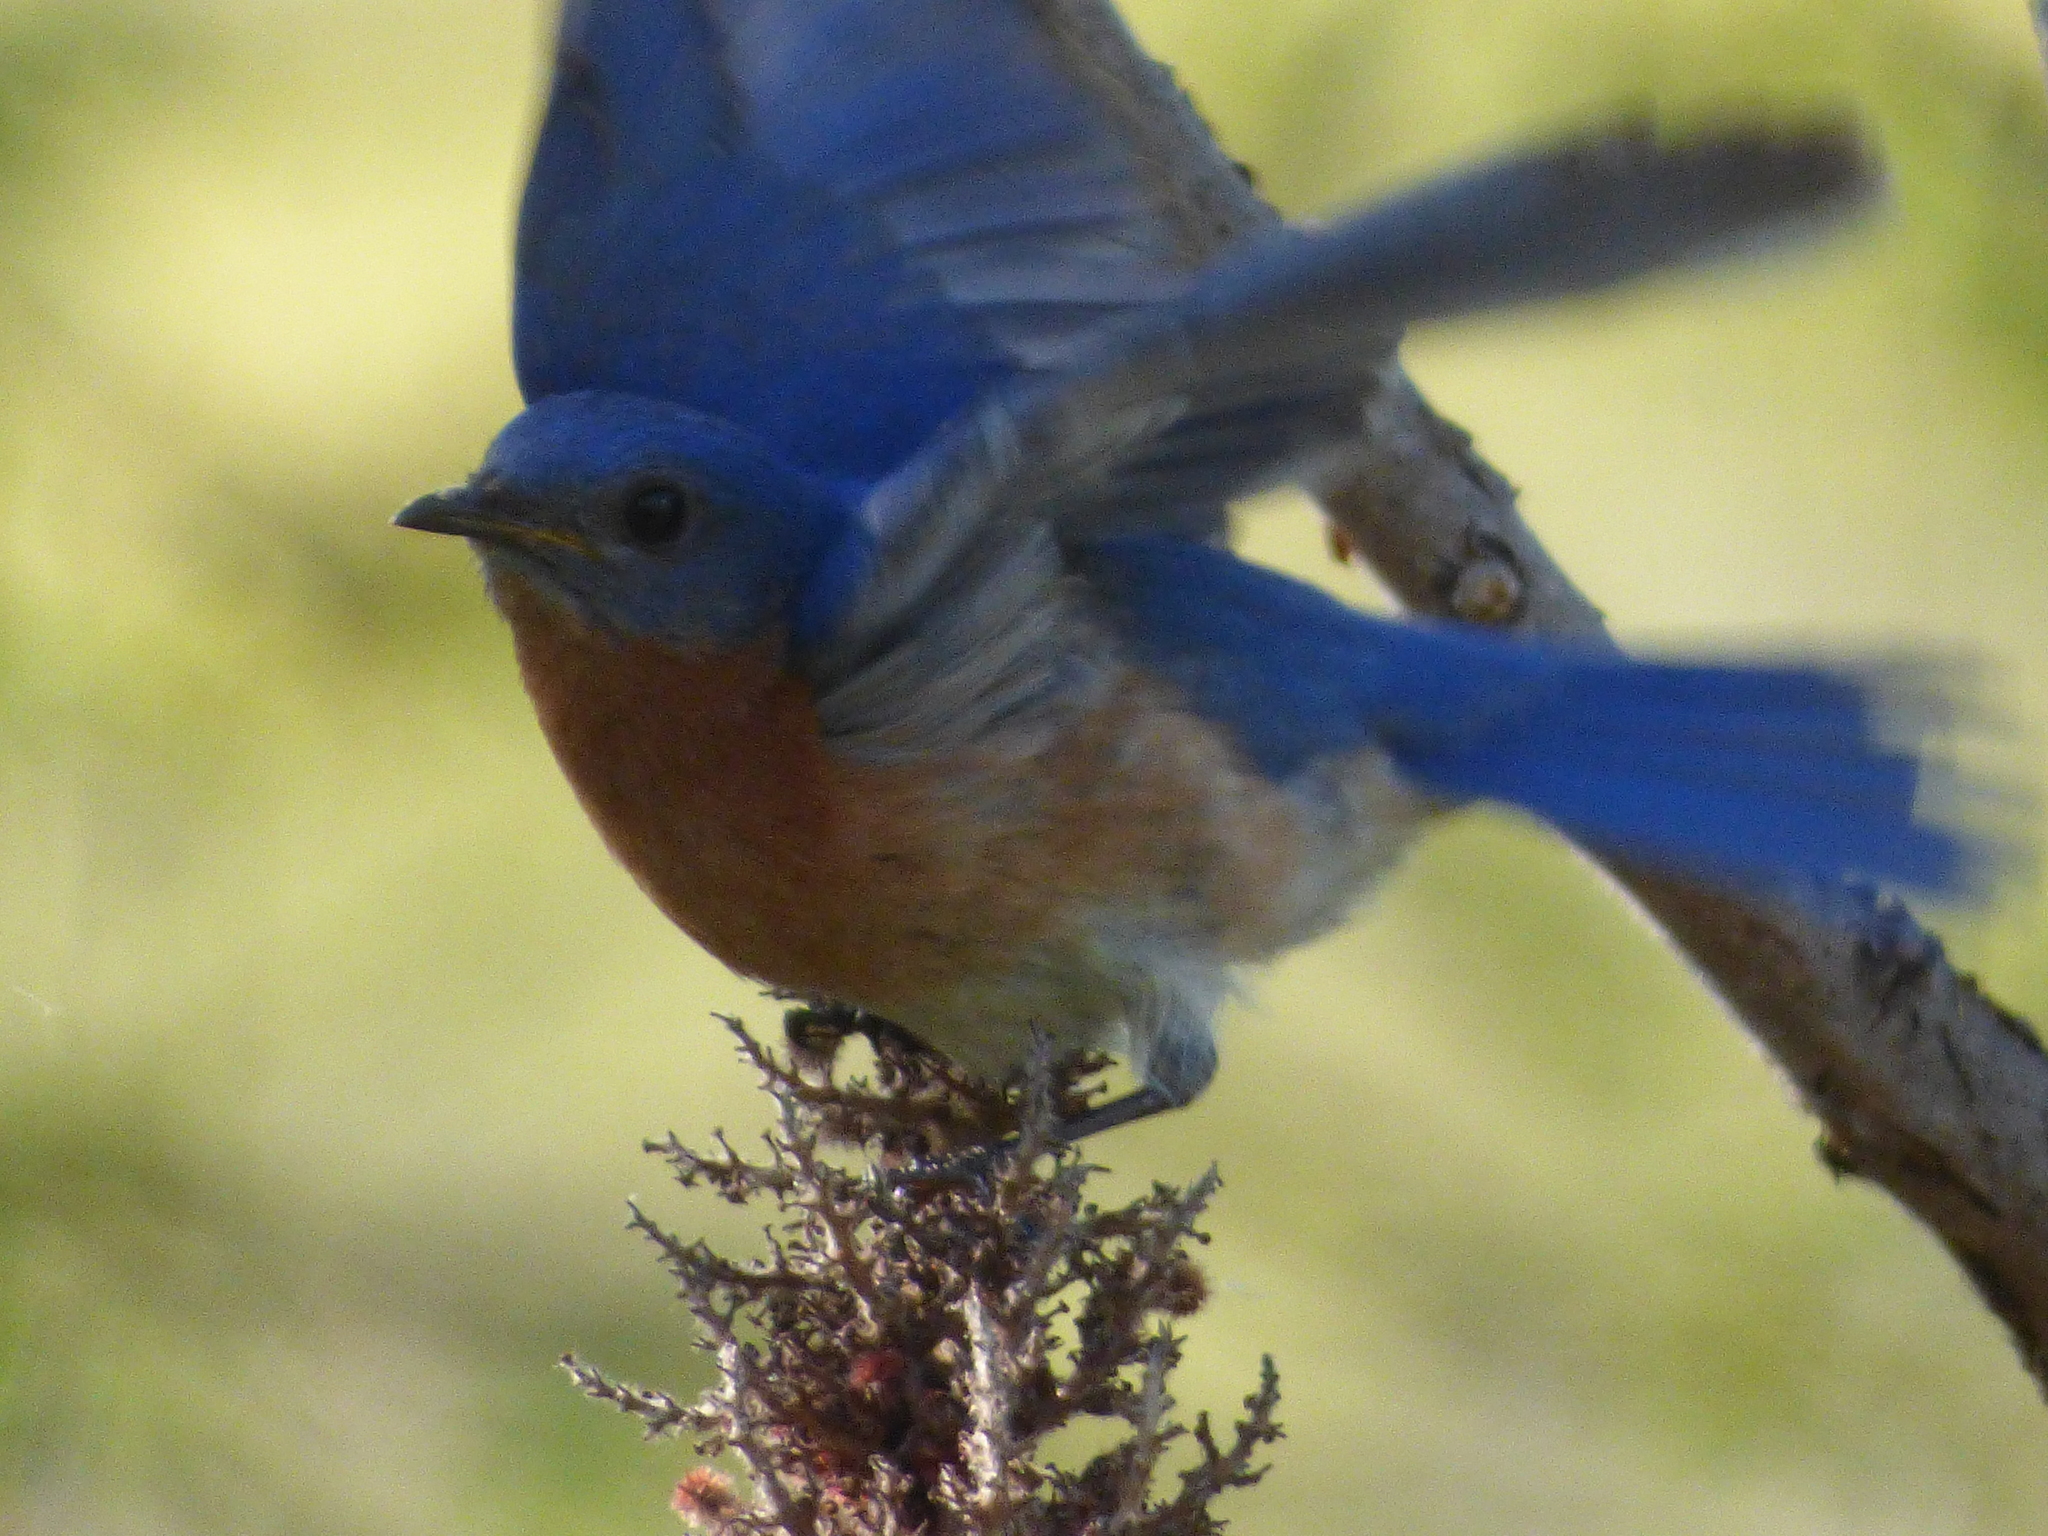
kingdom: Animalia
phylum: Chordata
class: Aves
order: Passeriformes
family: Turdidae
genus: Sialia
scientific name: Sialia sialis
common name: Eastern bluebird
